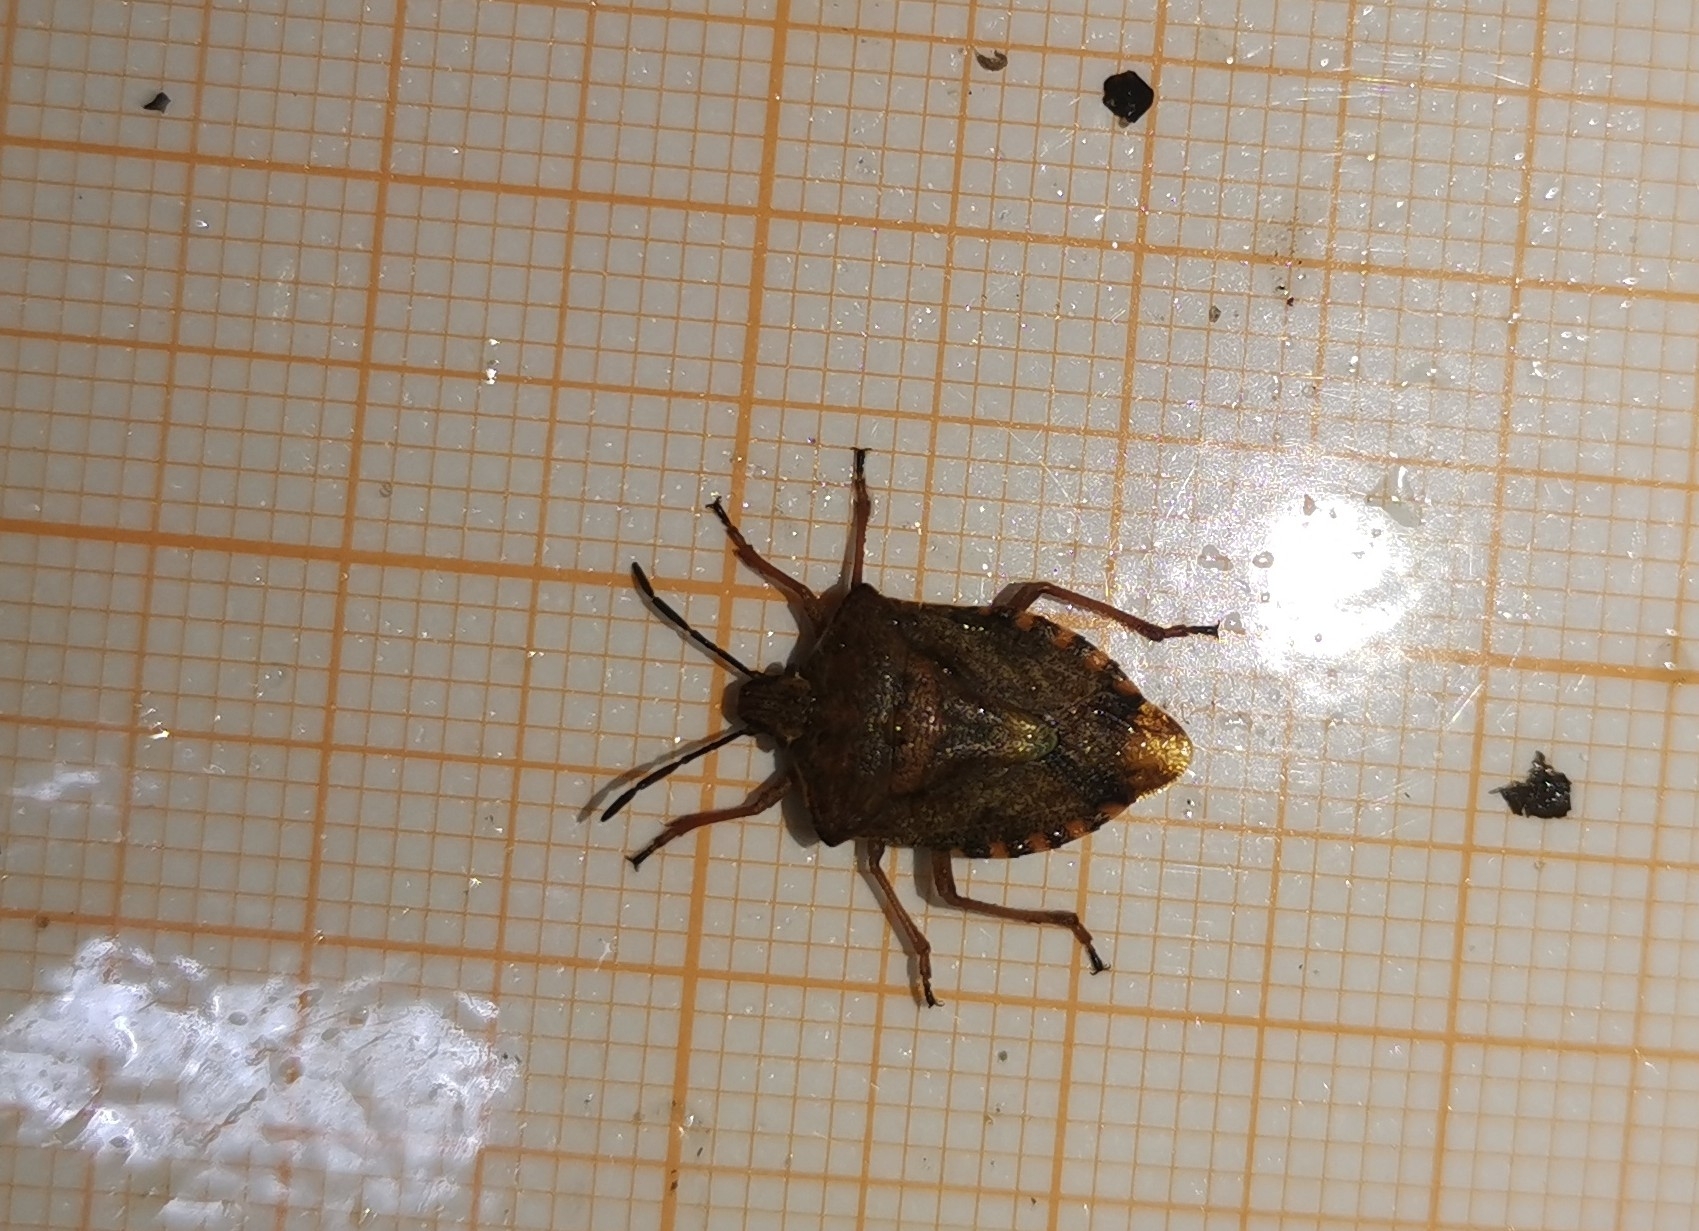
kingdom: Animalia
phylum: Arthropoda
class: Insecta
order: Hemiptera
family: Pentatomidae
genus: Carpocoris
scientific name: Carpocoris purpureipennis
